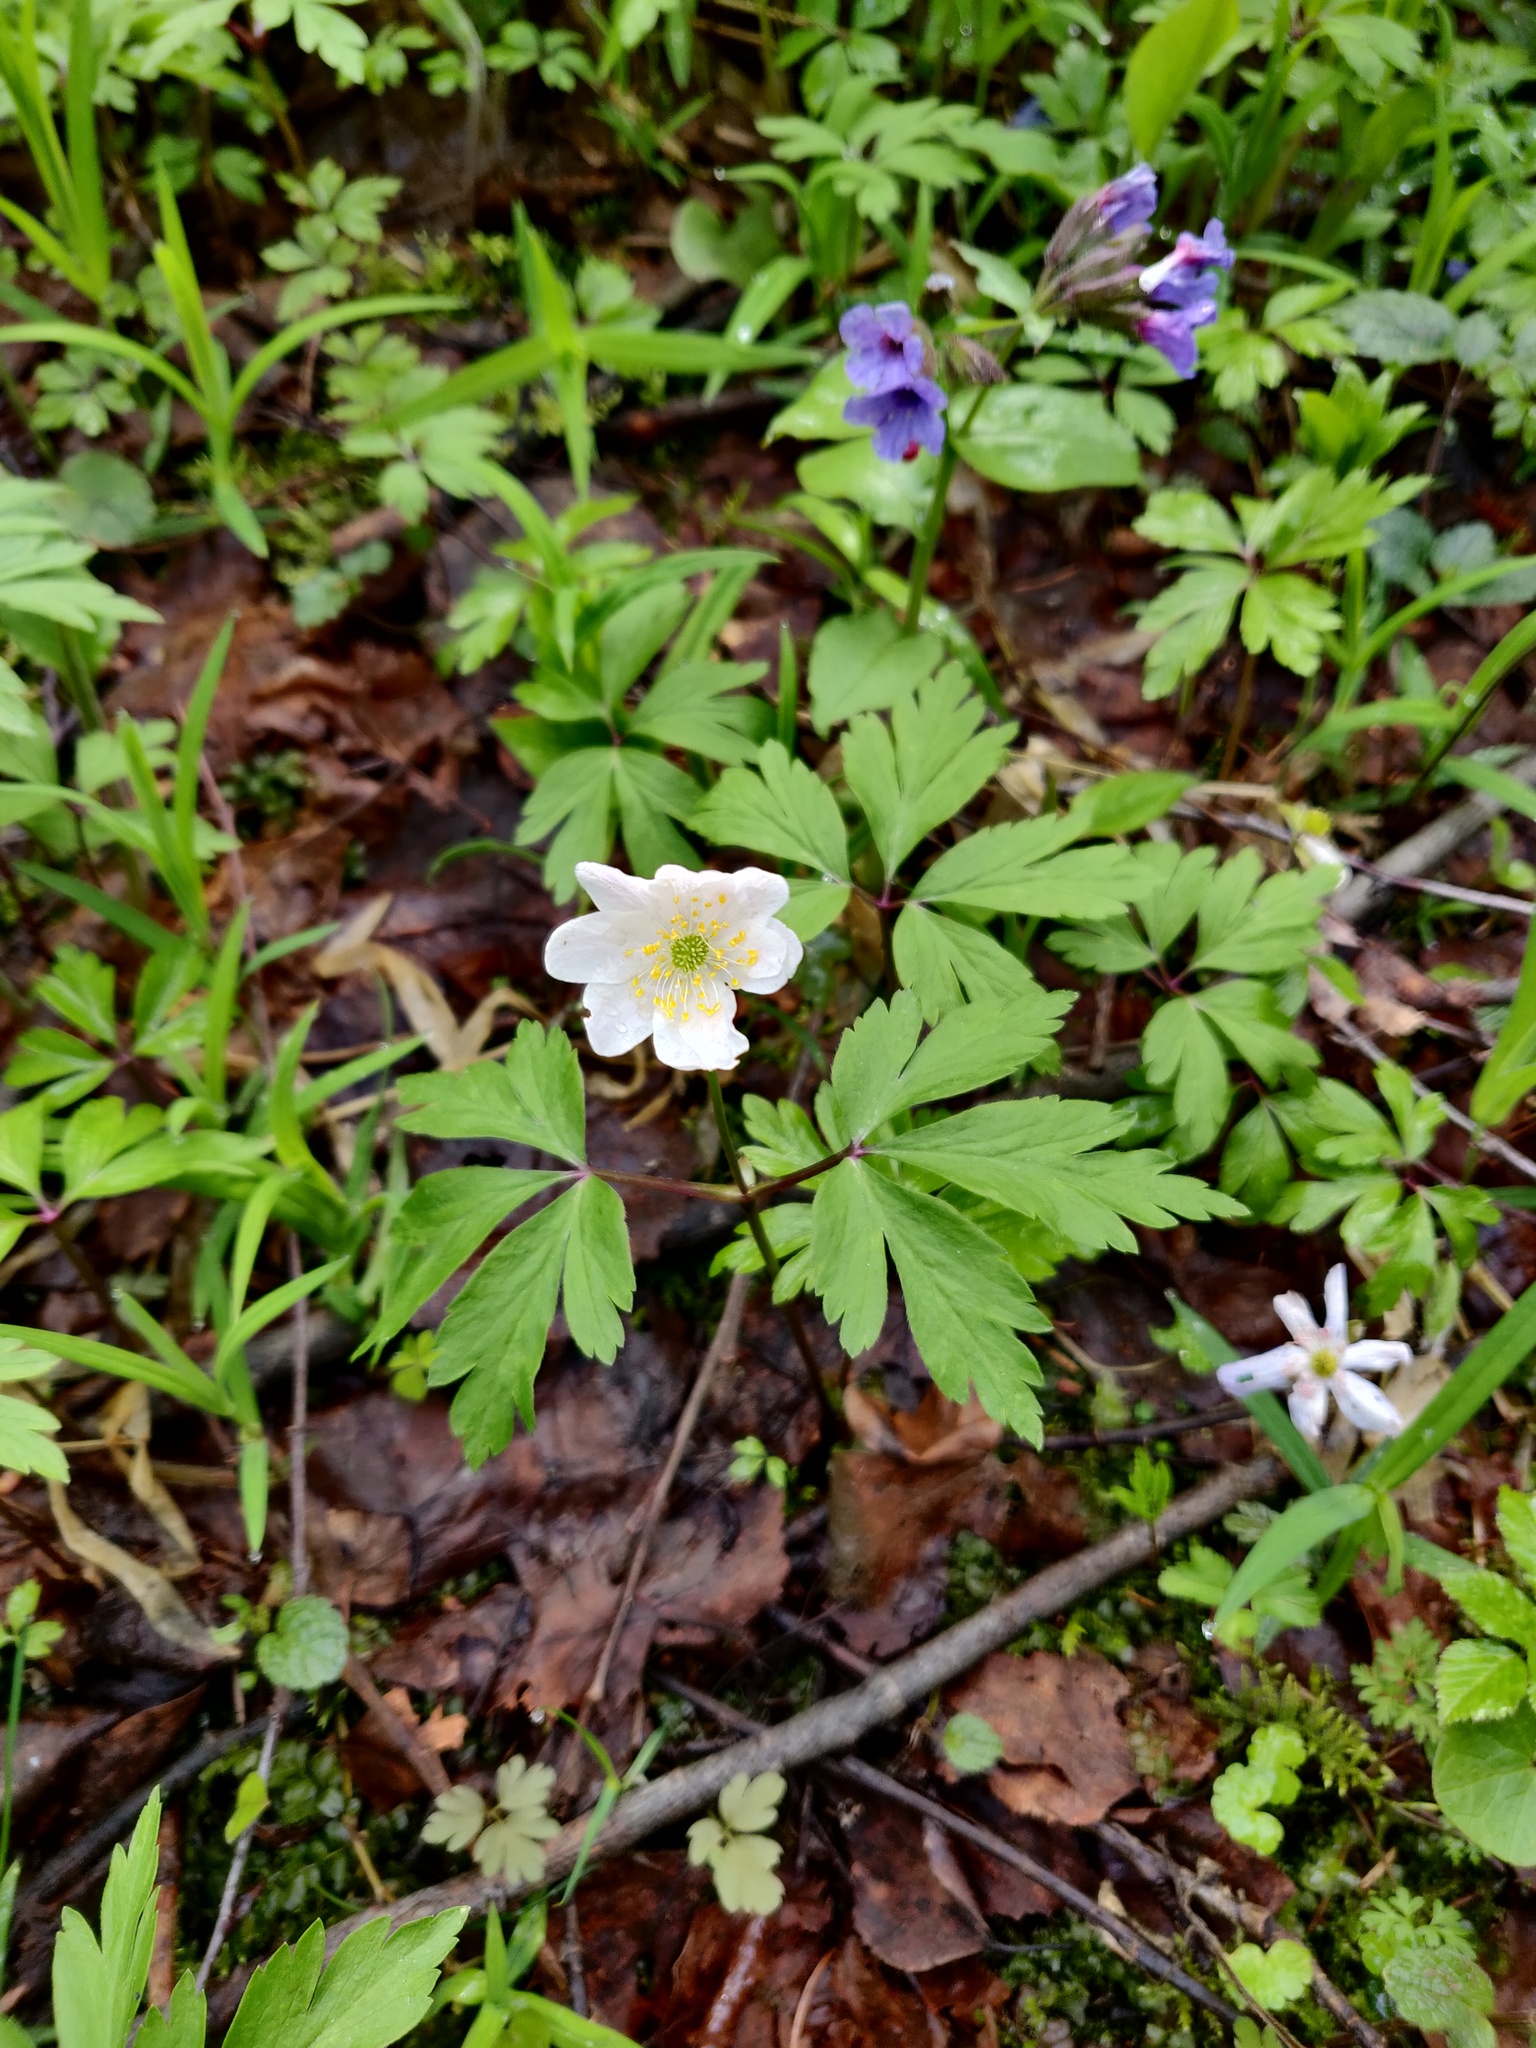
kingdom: Plantae
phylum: Tracheophyta
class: Magnoliopsida
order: Ranunculales
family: Ranunculaceae
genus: Anemone
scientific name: Anemone nemorosa
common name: Wood anemone
